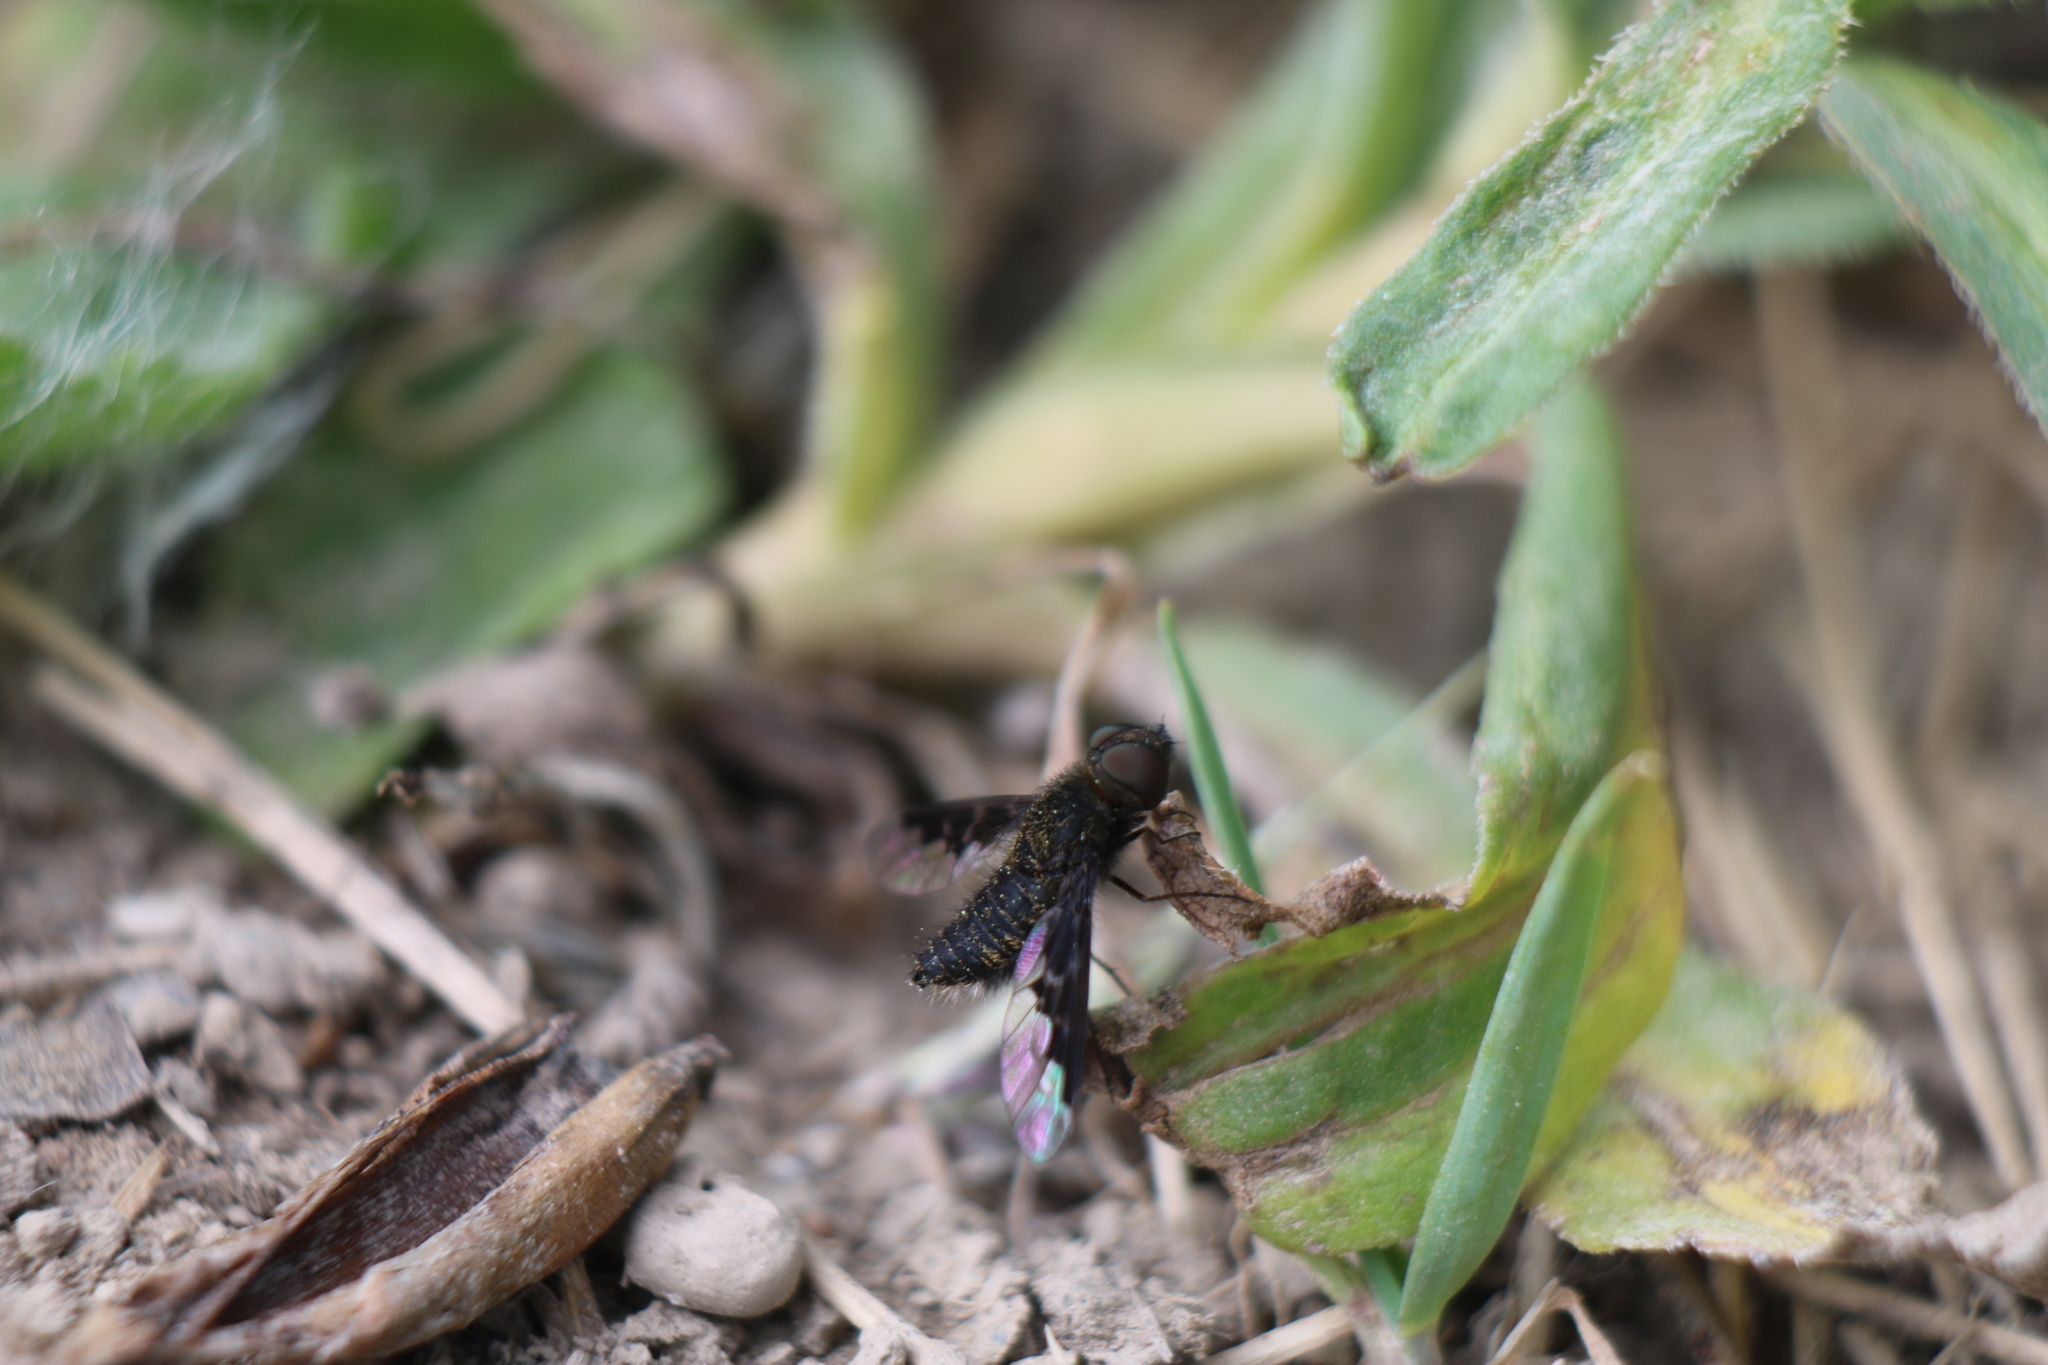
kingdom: Animalia
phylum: Arthropoda
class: Insecta
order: Diptera
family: Bombyliidae
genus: Hemipenthes
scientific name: Hemipenthes webberi
